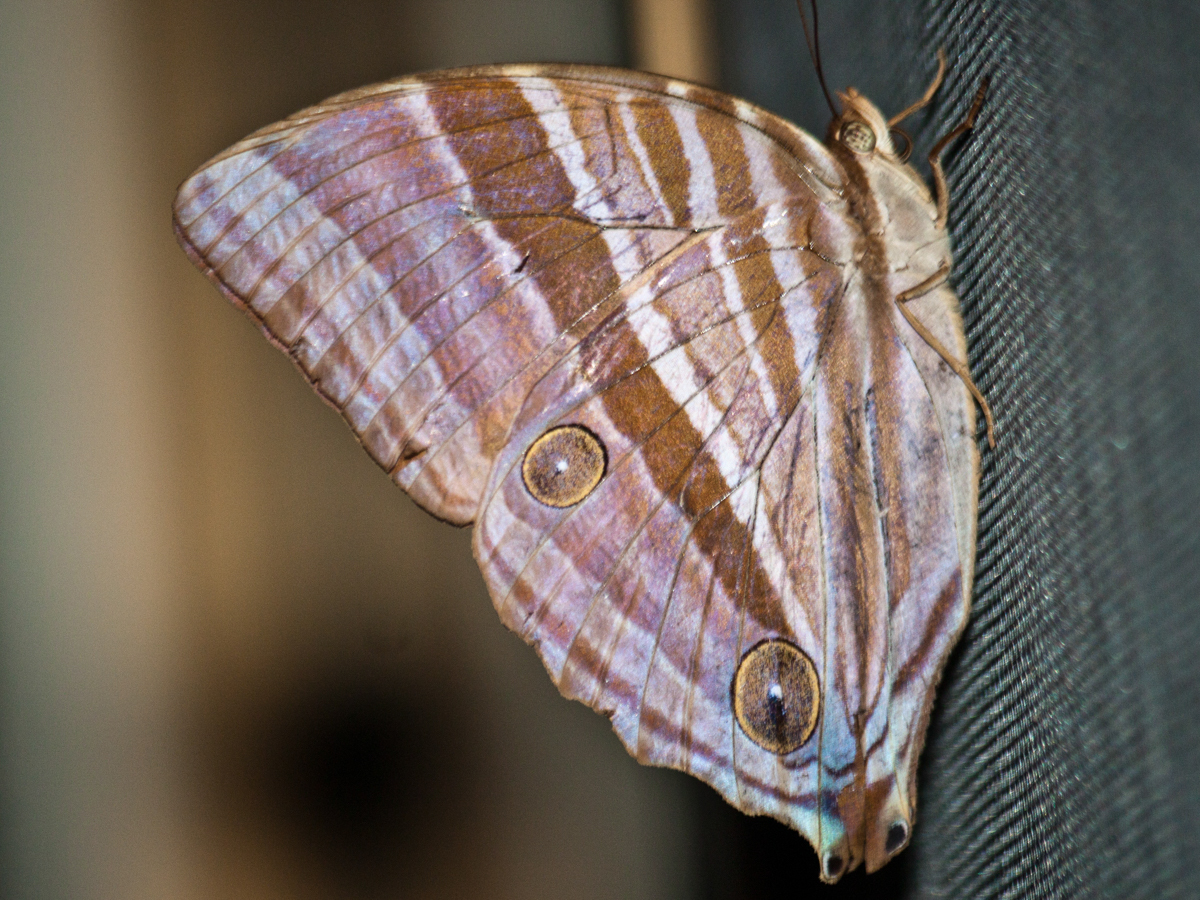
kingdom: Animalia
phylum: Arthropoda
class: Insecta
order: Lepidoptera
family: Nymphalidae
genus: Amathusia
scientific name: Amathusia phidippus
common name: Palm king
